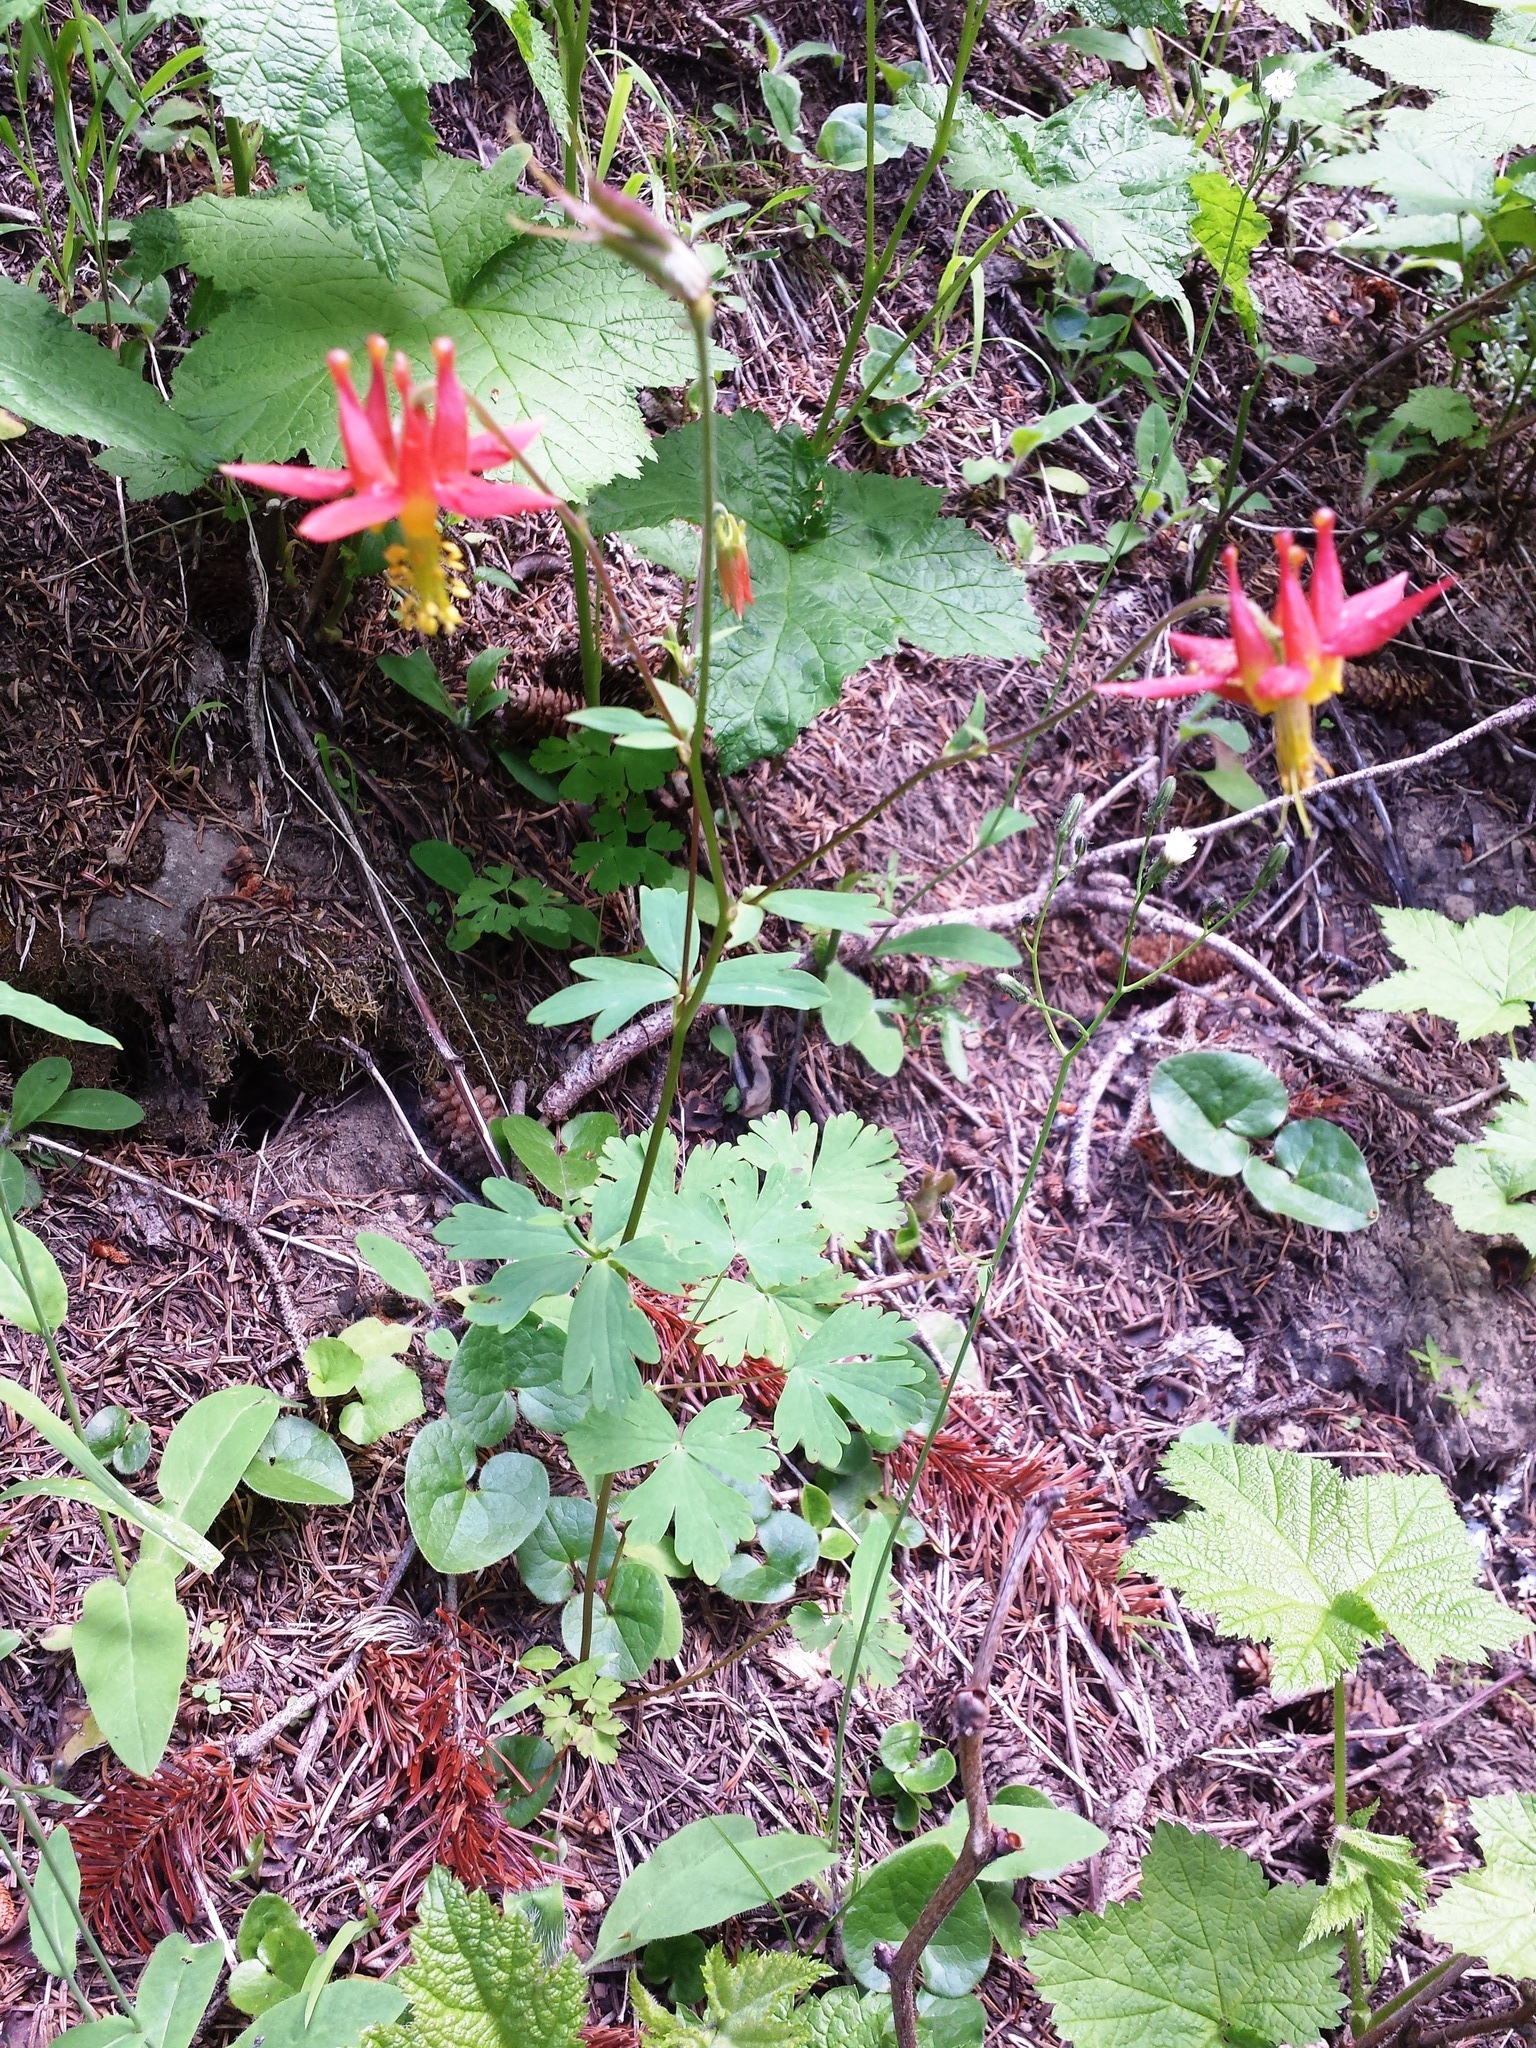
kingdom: Plantae
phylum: Tracheophyta
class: Magnoliopsida
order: Ranunculales
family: Ranunculaceae
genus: Aquilegia
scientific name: Aquilegia formosa
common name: Sitka columbine
